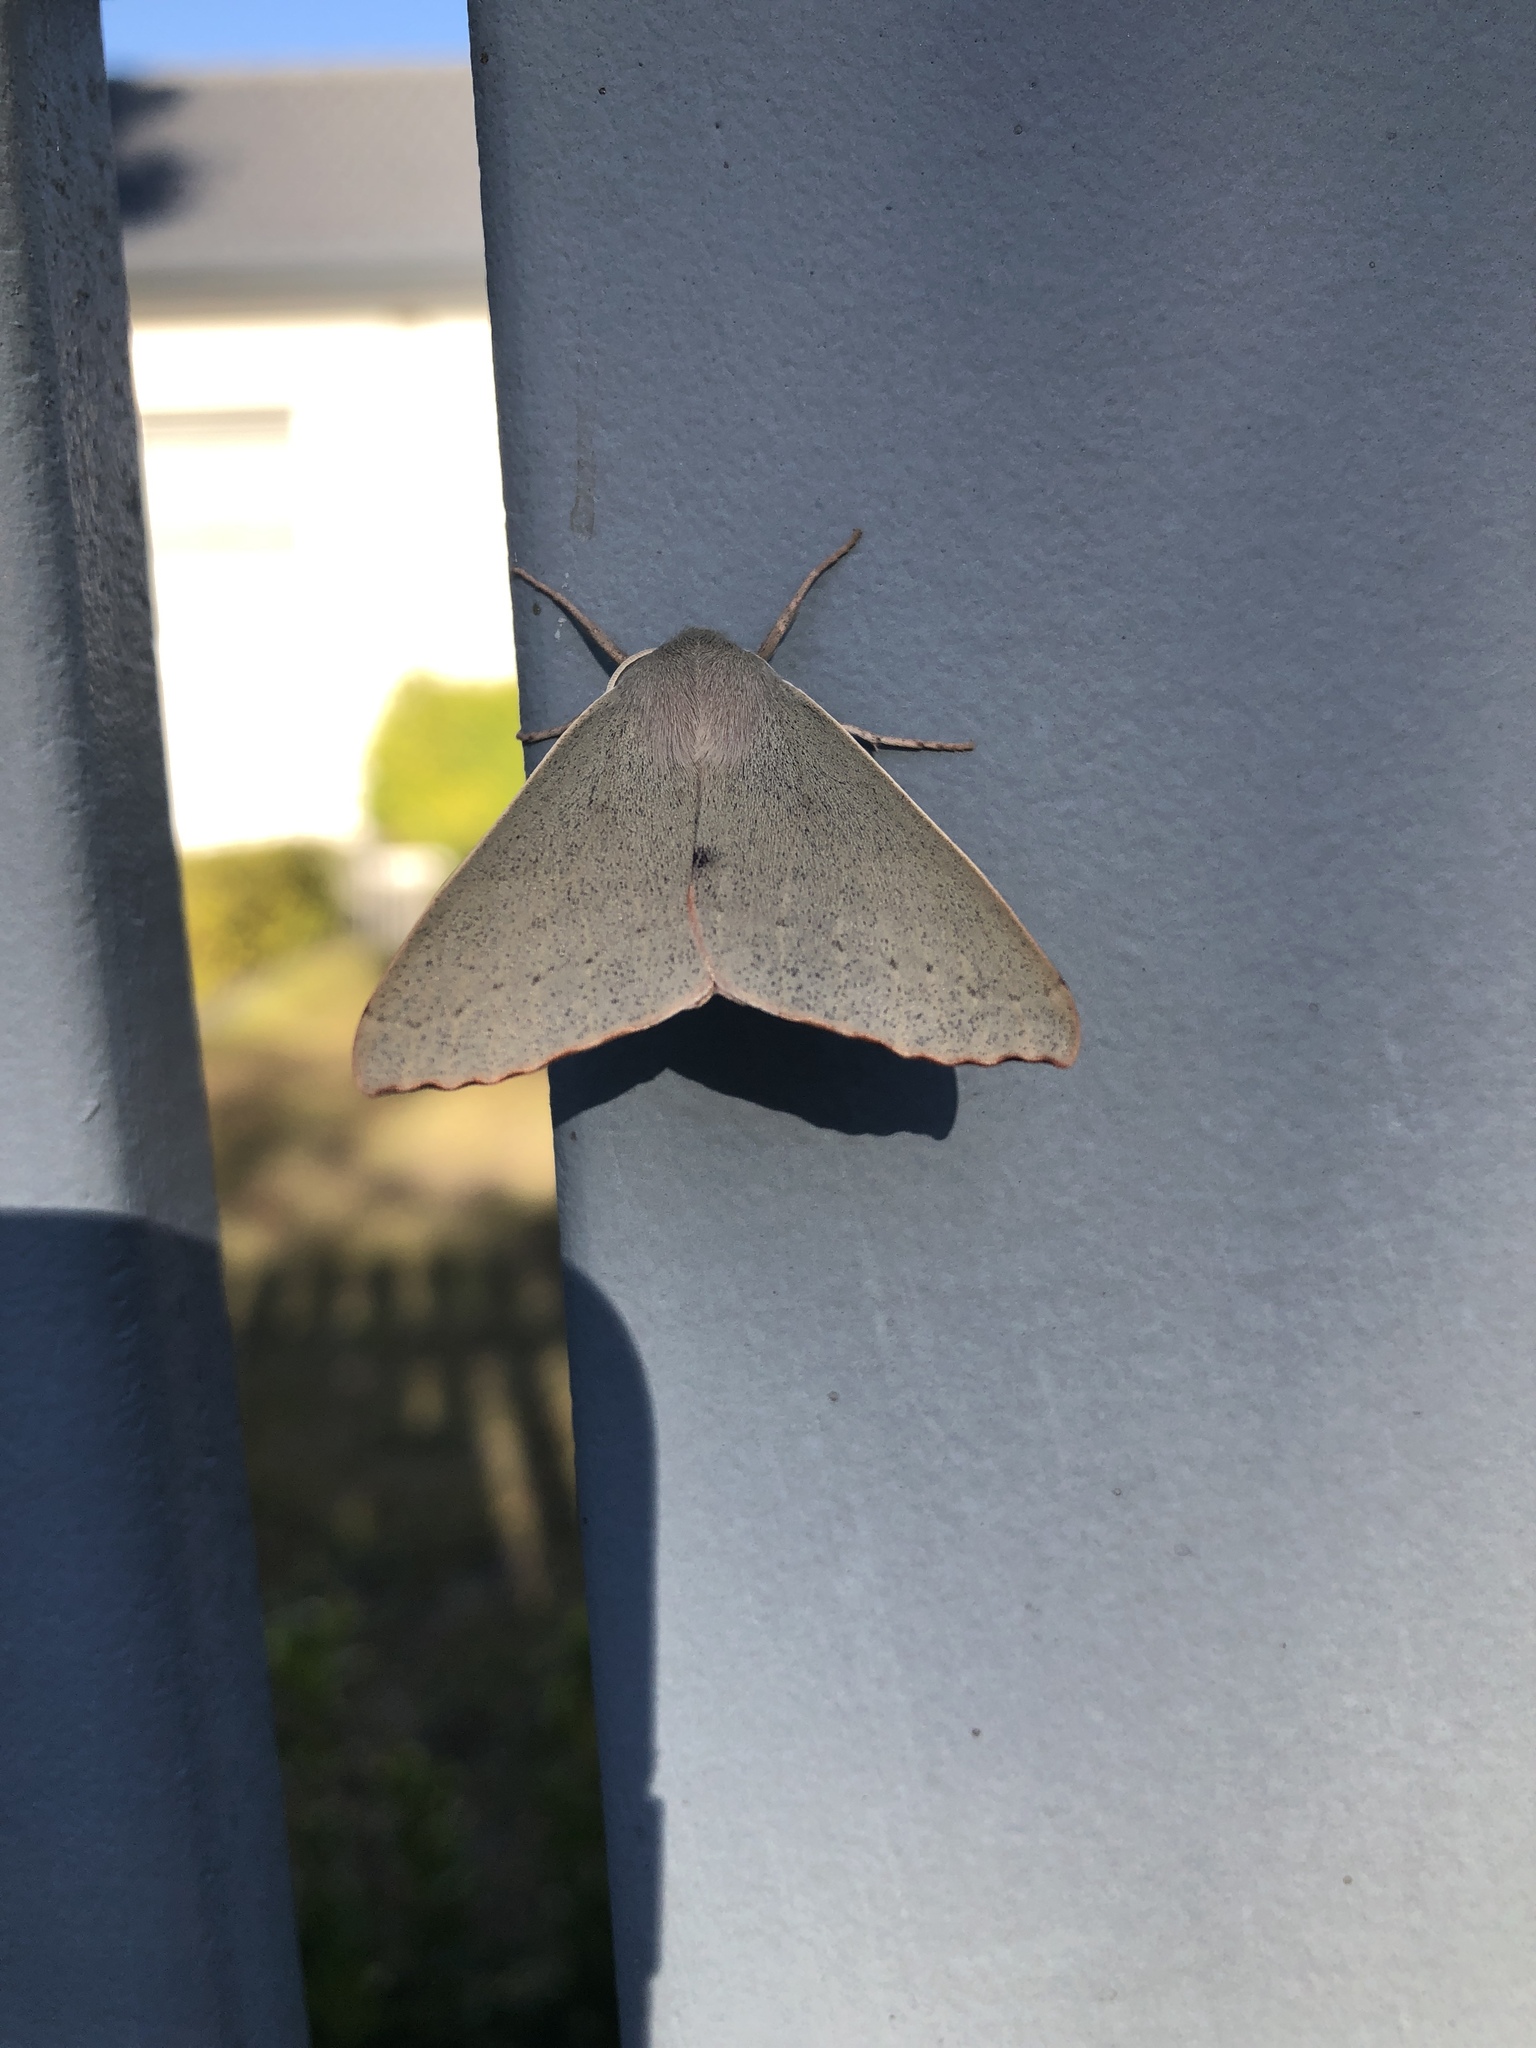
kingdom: Animalia
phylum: Arthropoda
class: Insecta
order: Lepidoptera
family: Geometridae
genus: Arhodia
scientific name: Arhodia lasiocamparia
